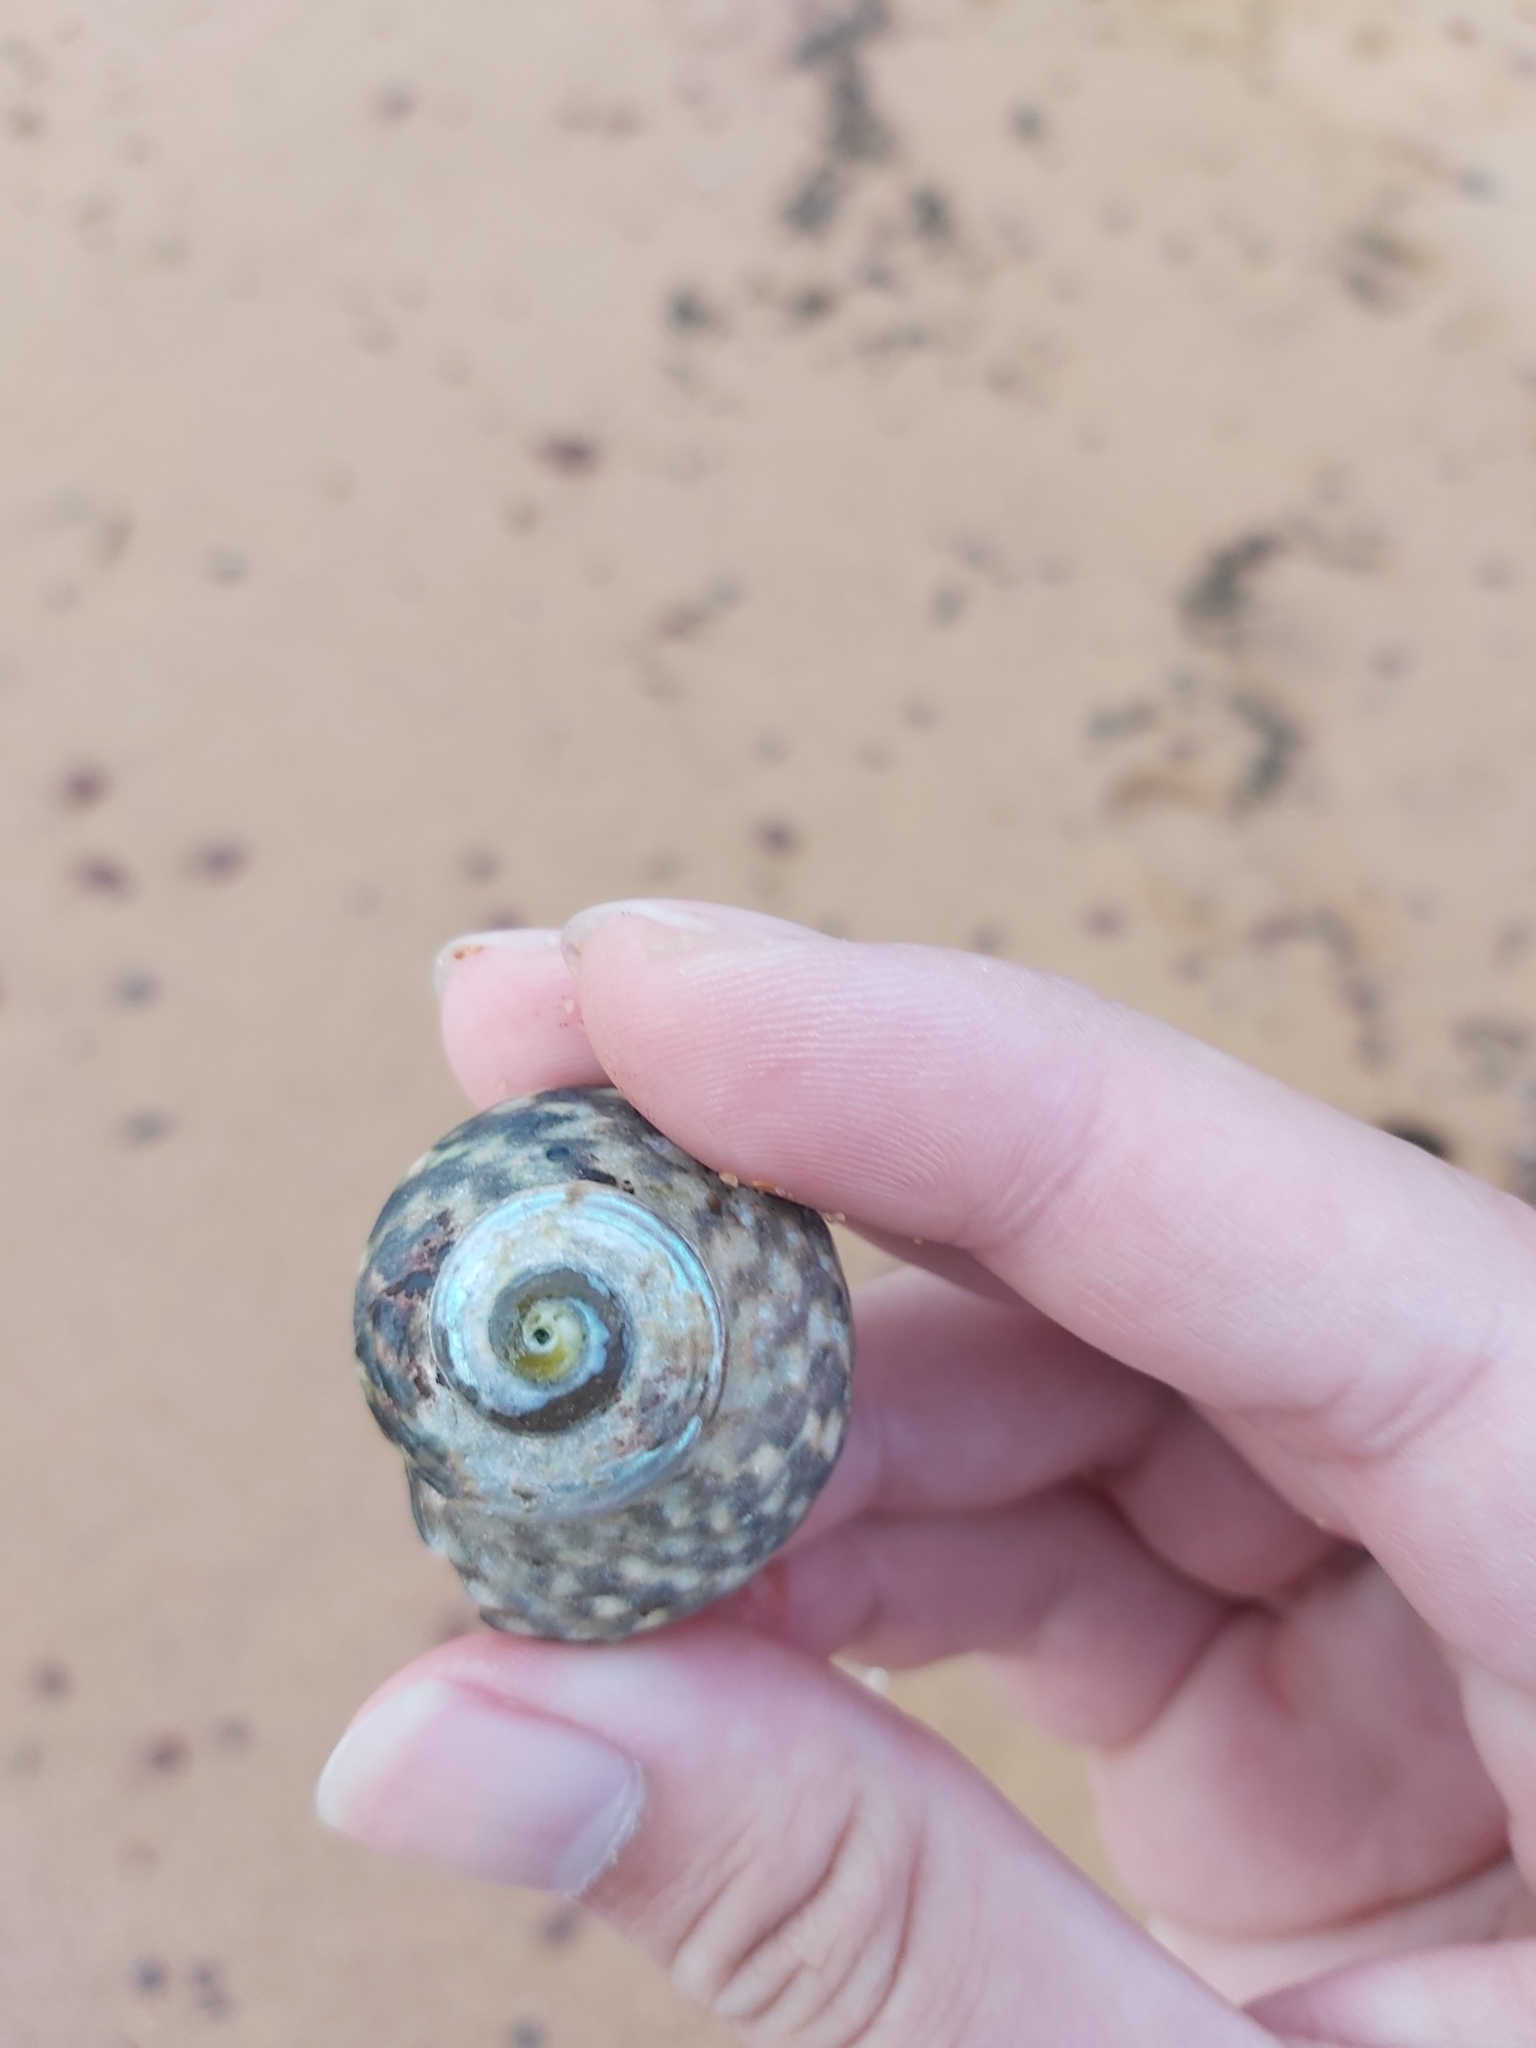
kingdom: Animalia
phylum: Mollusca
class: Gastropoda
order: Trochida
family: Turbinidae
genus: Lunella
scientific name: Lunella undulata
